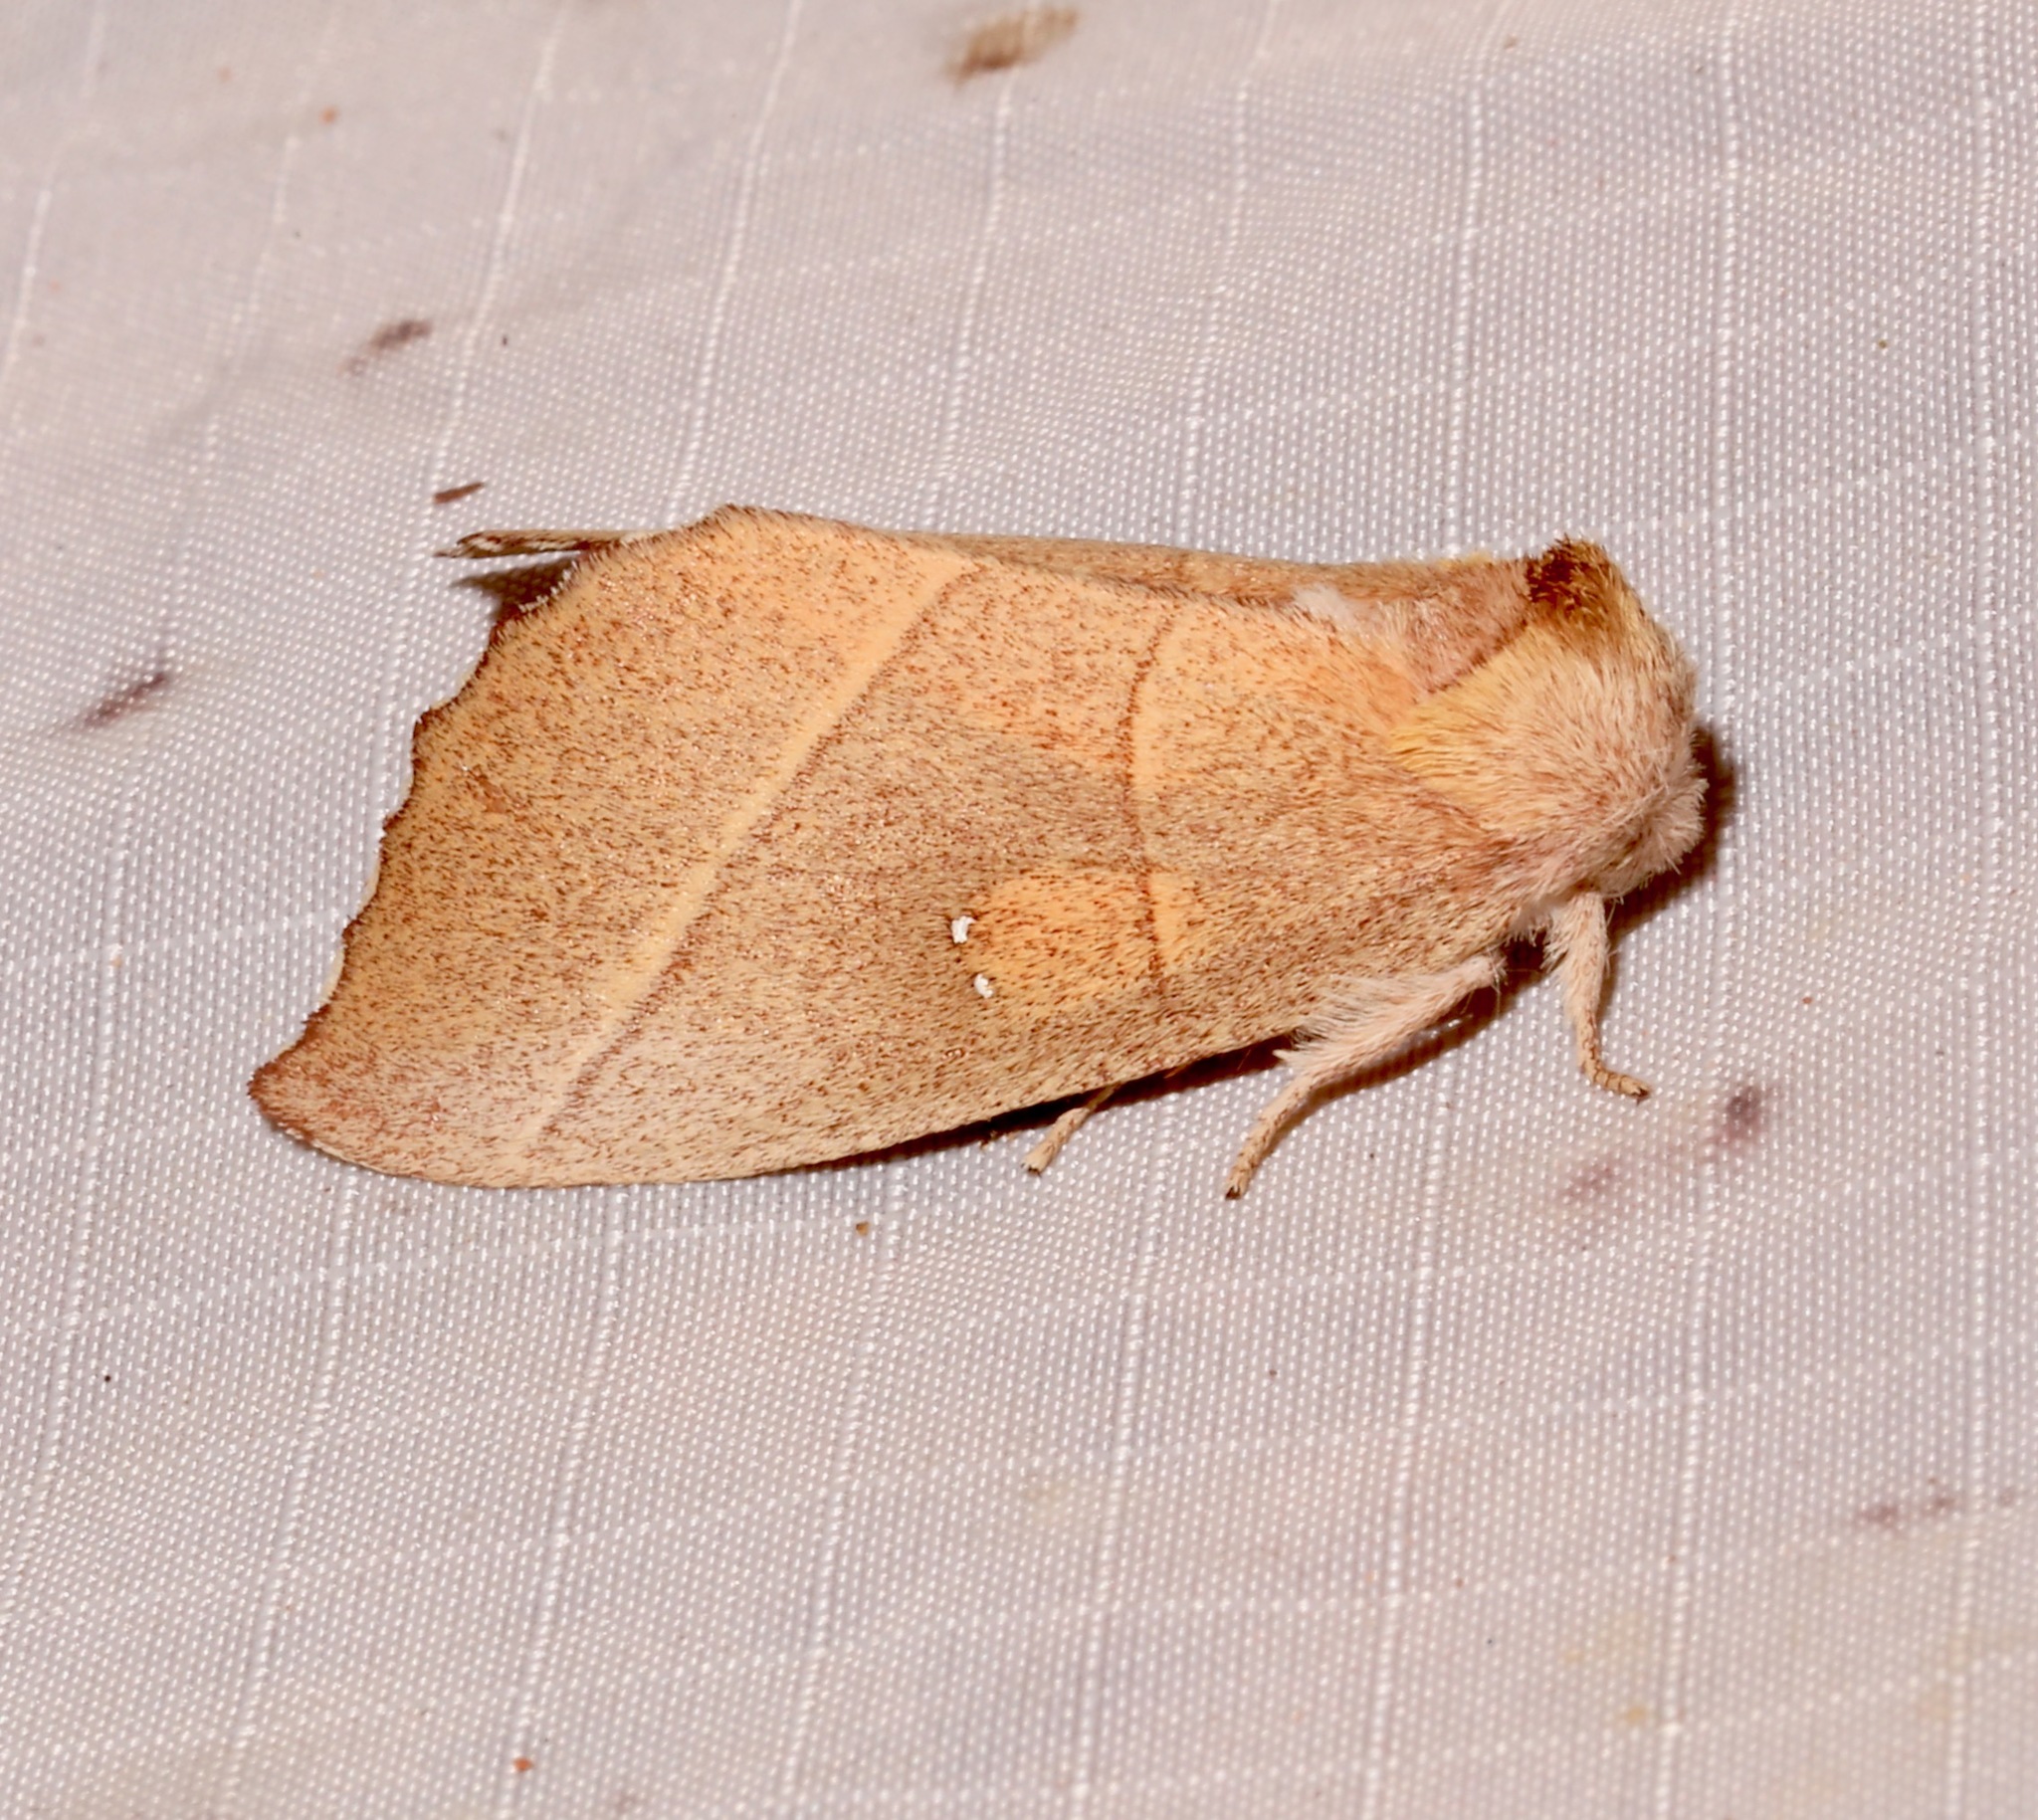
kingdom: Animalia
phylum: Arthropoda
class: Insecta
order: Lepidoptera
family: Notodontidae
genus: Nadata
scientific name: Nadata gibbosa
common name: White-dotted prominent
